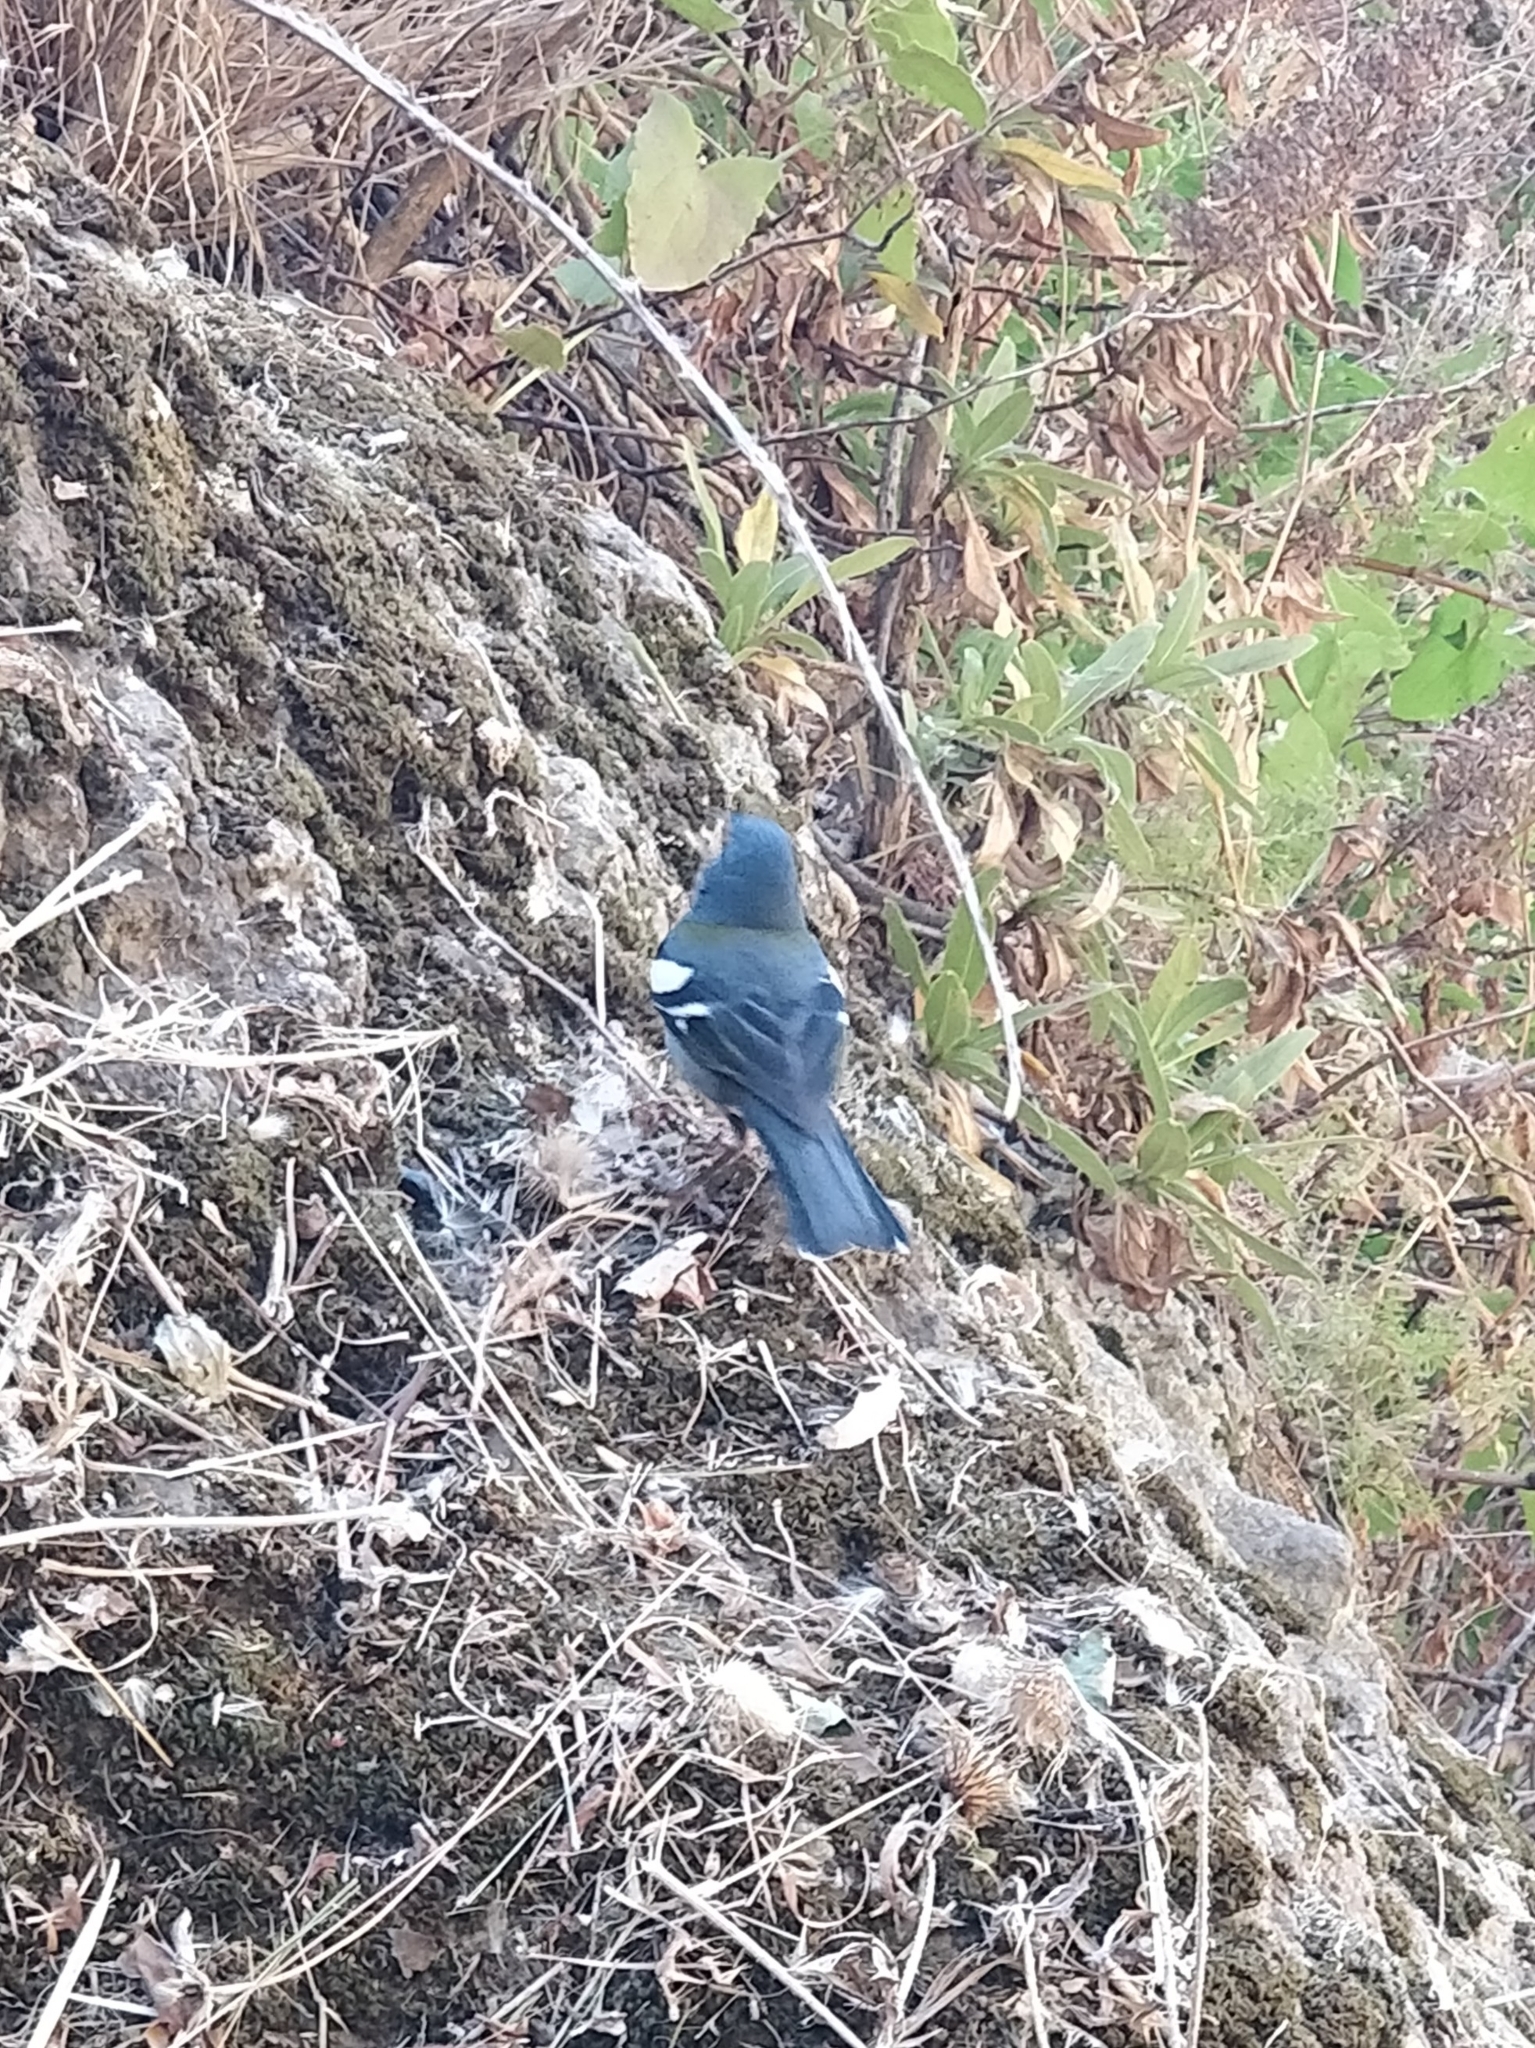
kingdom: Animalia
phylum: Chordata
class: Aves
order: Passeriformes
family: Fringillidae
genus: Fringilla
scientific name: Fringilla maderensis
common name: Madeira chaffinch
